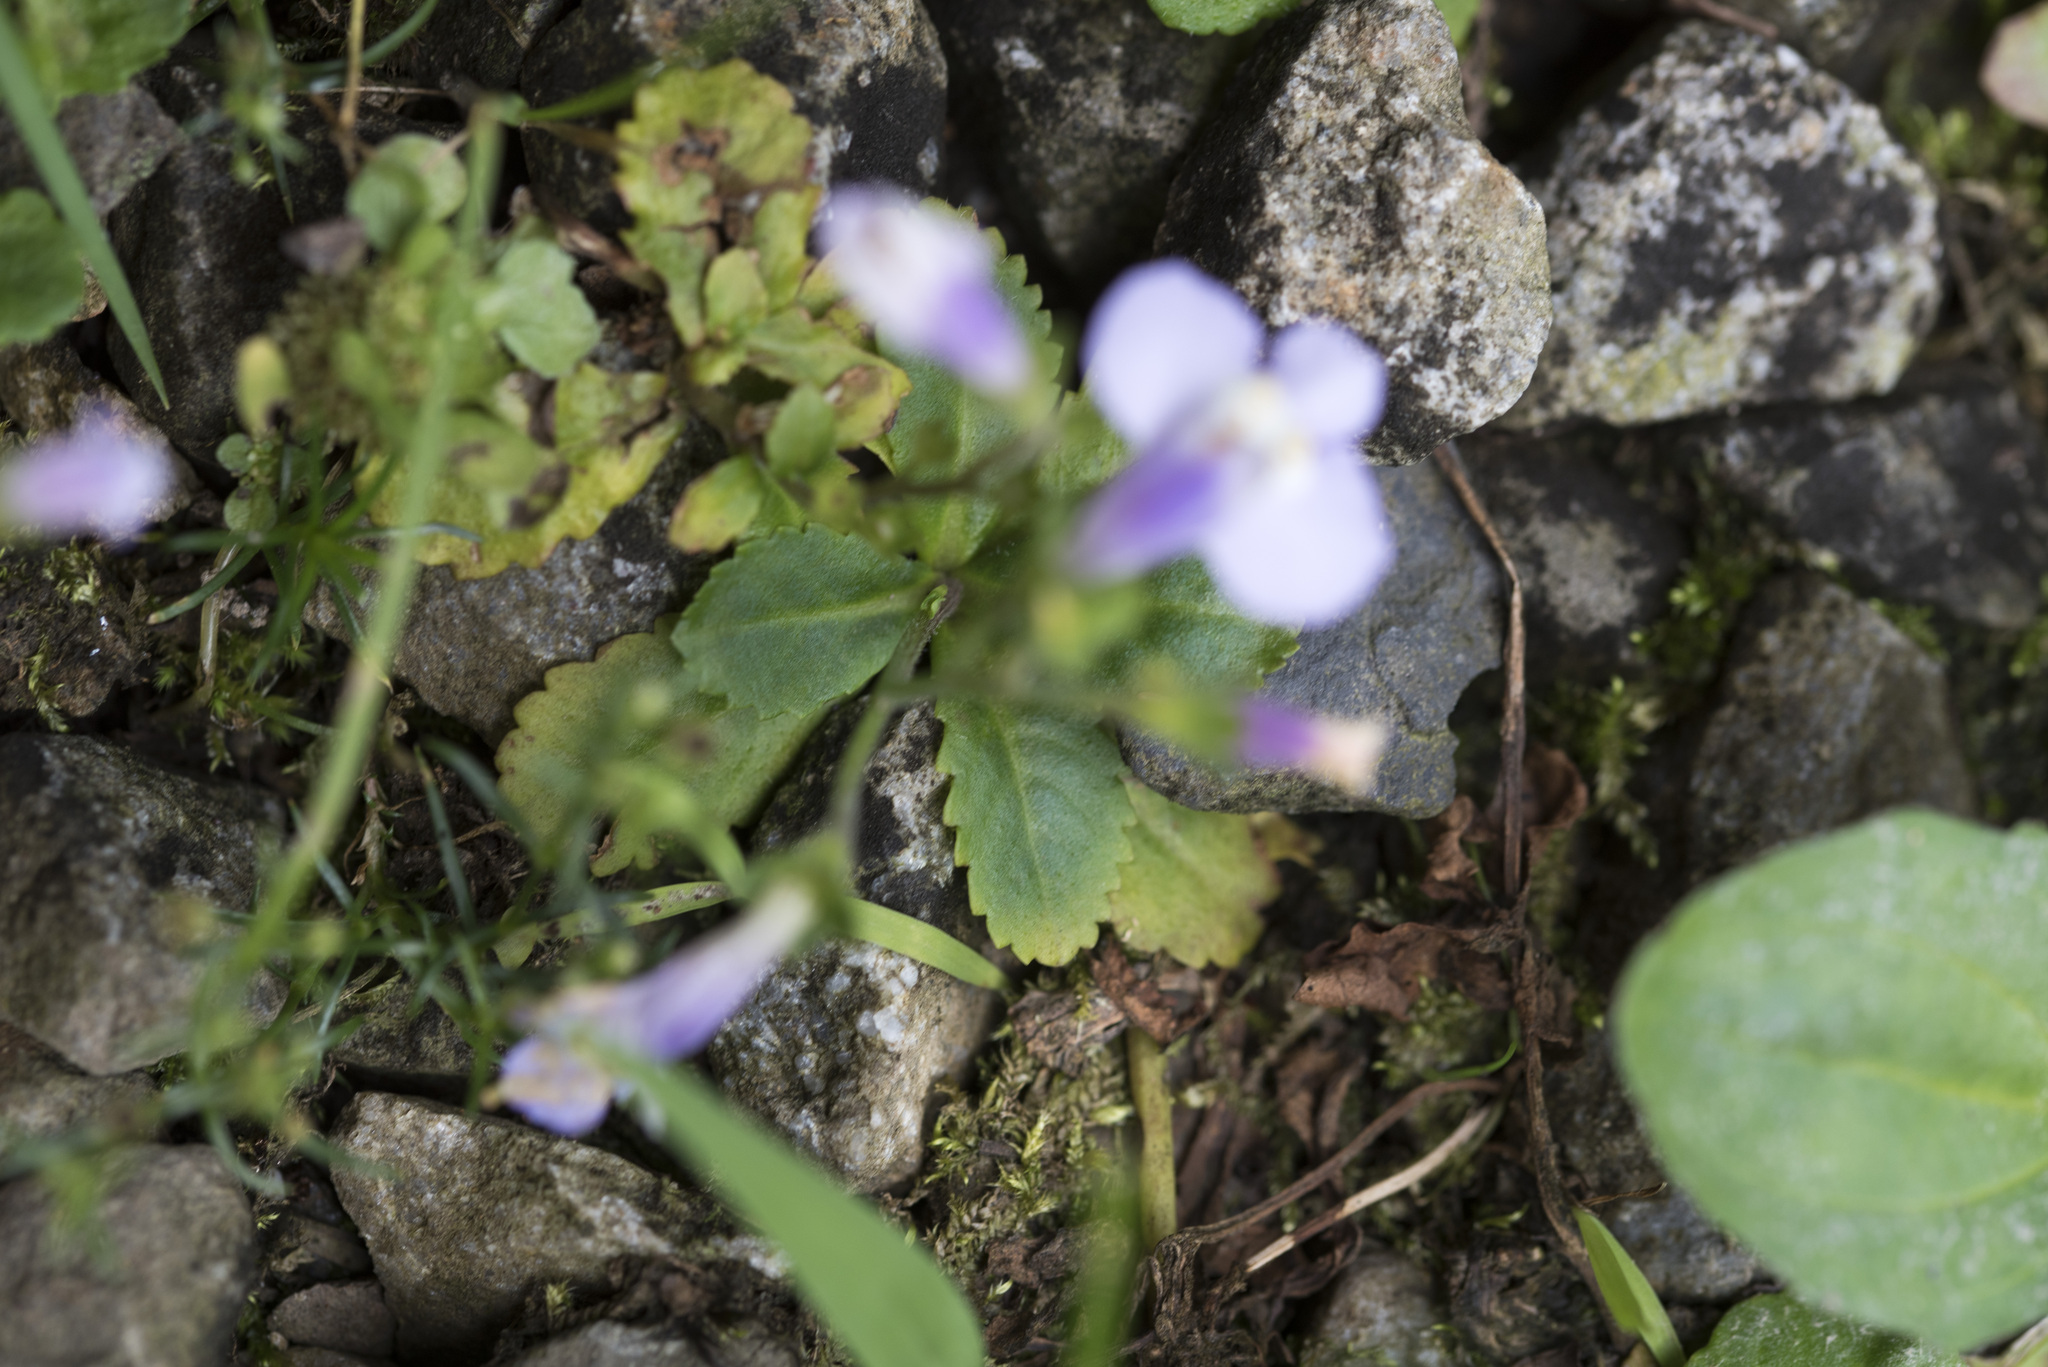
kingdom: Plantae
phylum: Tracheophyta
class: Magnoliopsida
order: Lamiales
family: Mazaceae
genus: Mazus
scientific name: Mazus fauriei
